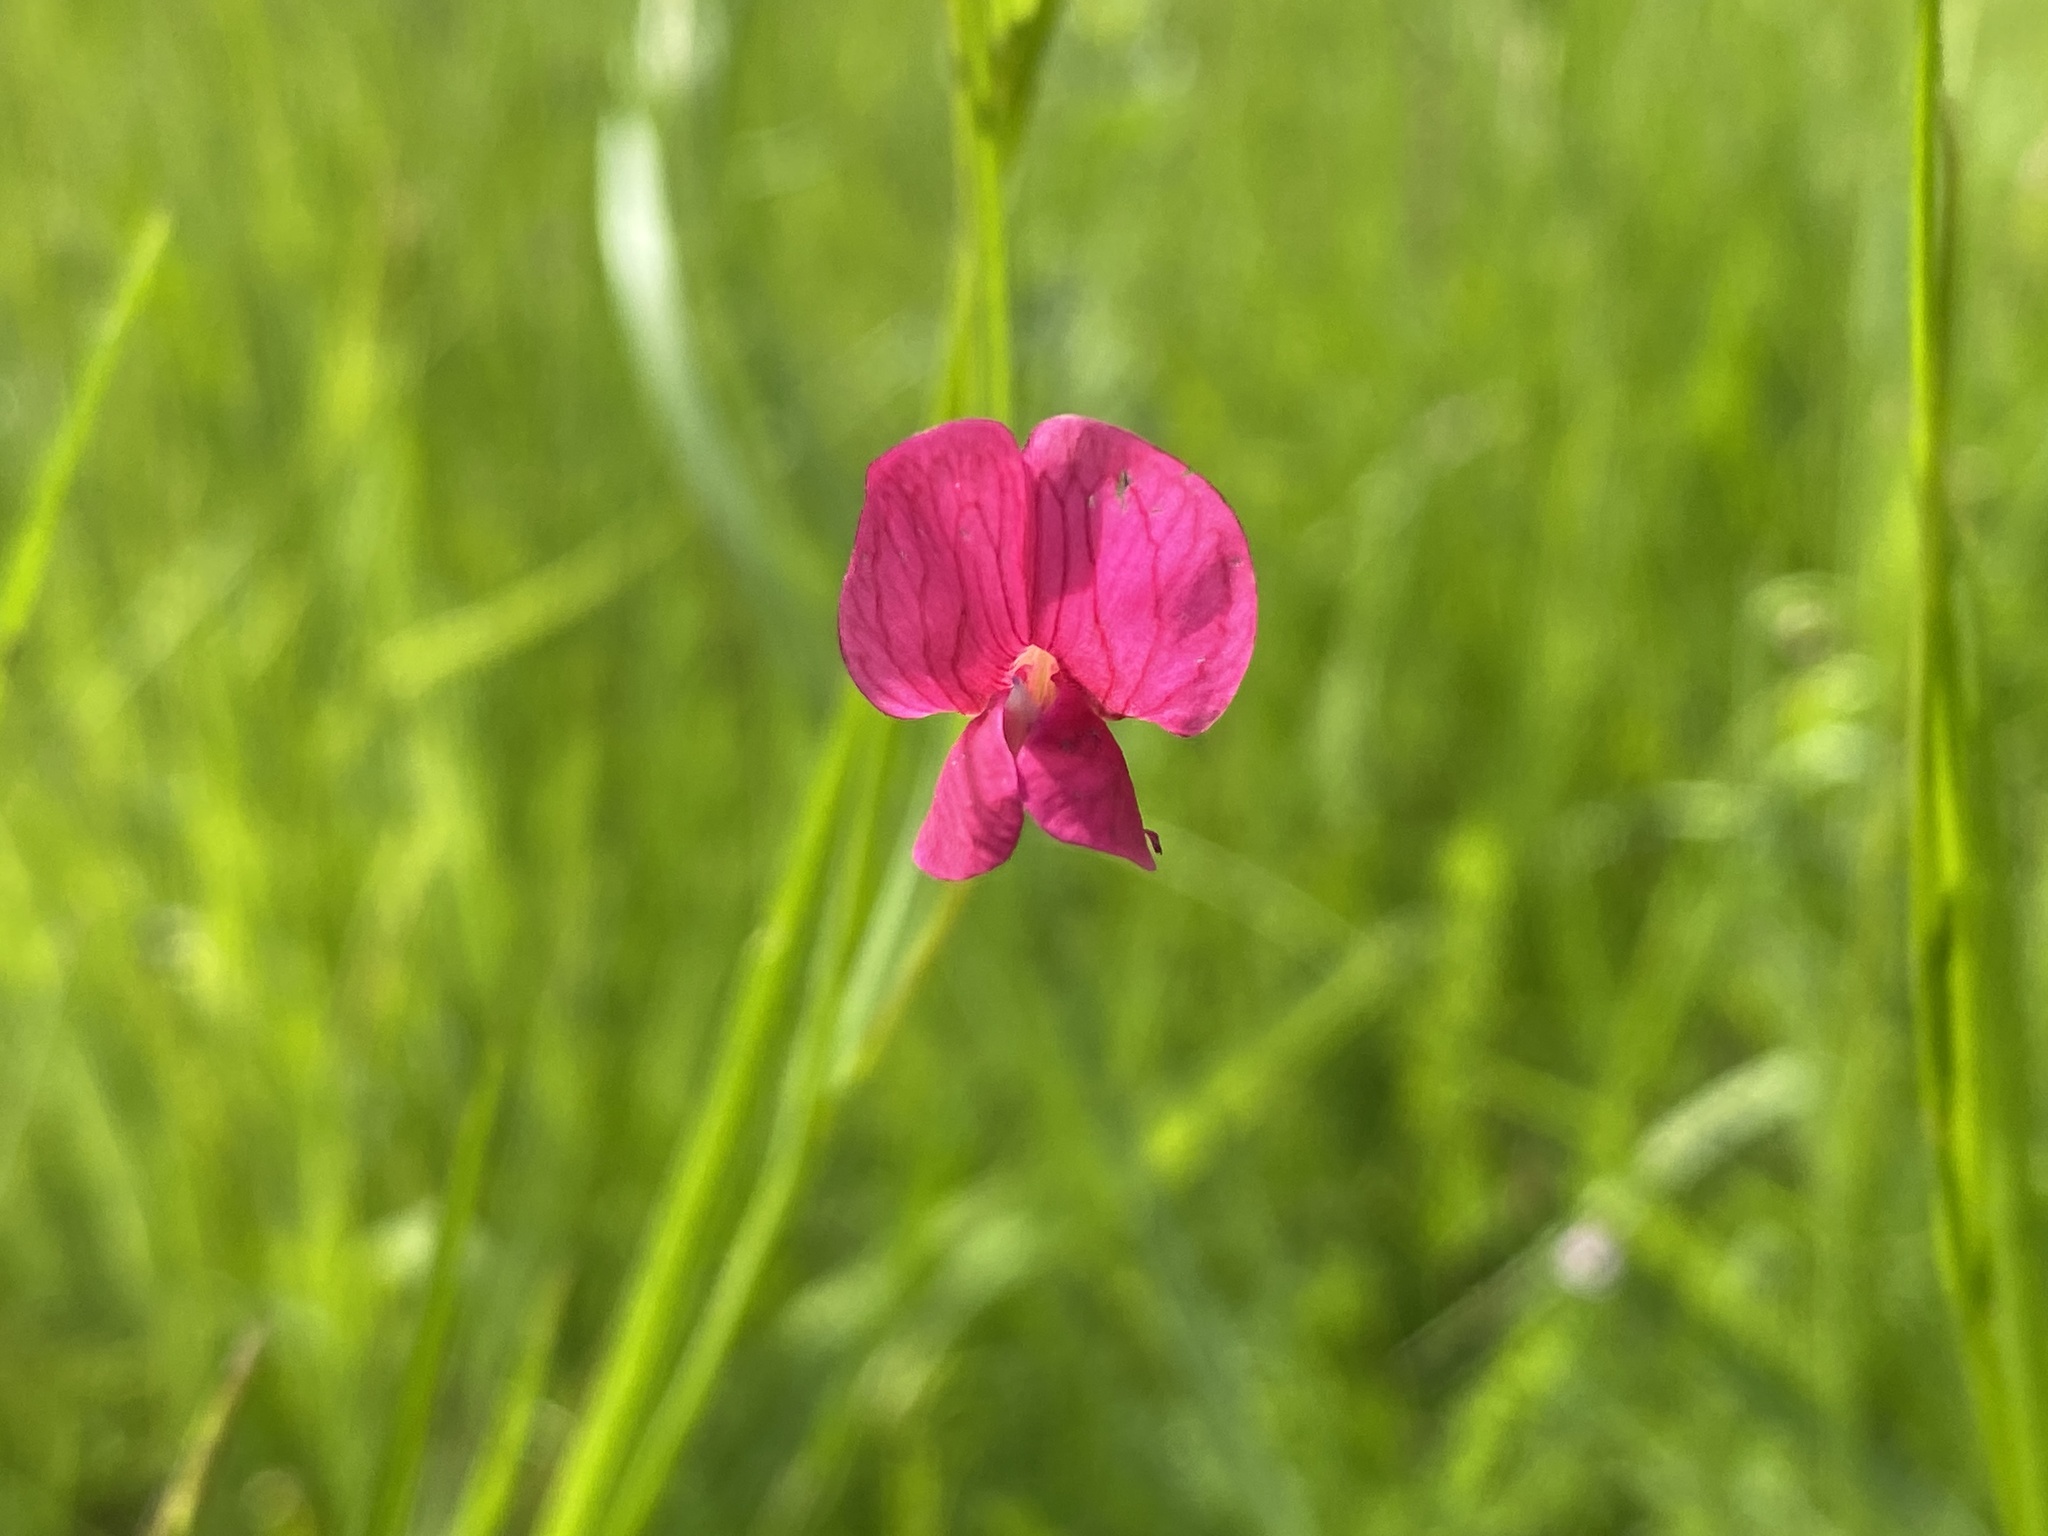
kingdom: Plantae
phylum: Tracheophyta
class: Magnoliopsida
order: Fabales
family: Fabaceae
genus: Lathyrus
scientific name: Lathyrus nissolia
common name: Grass vetchling
